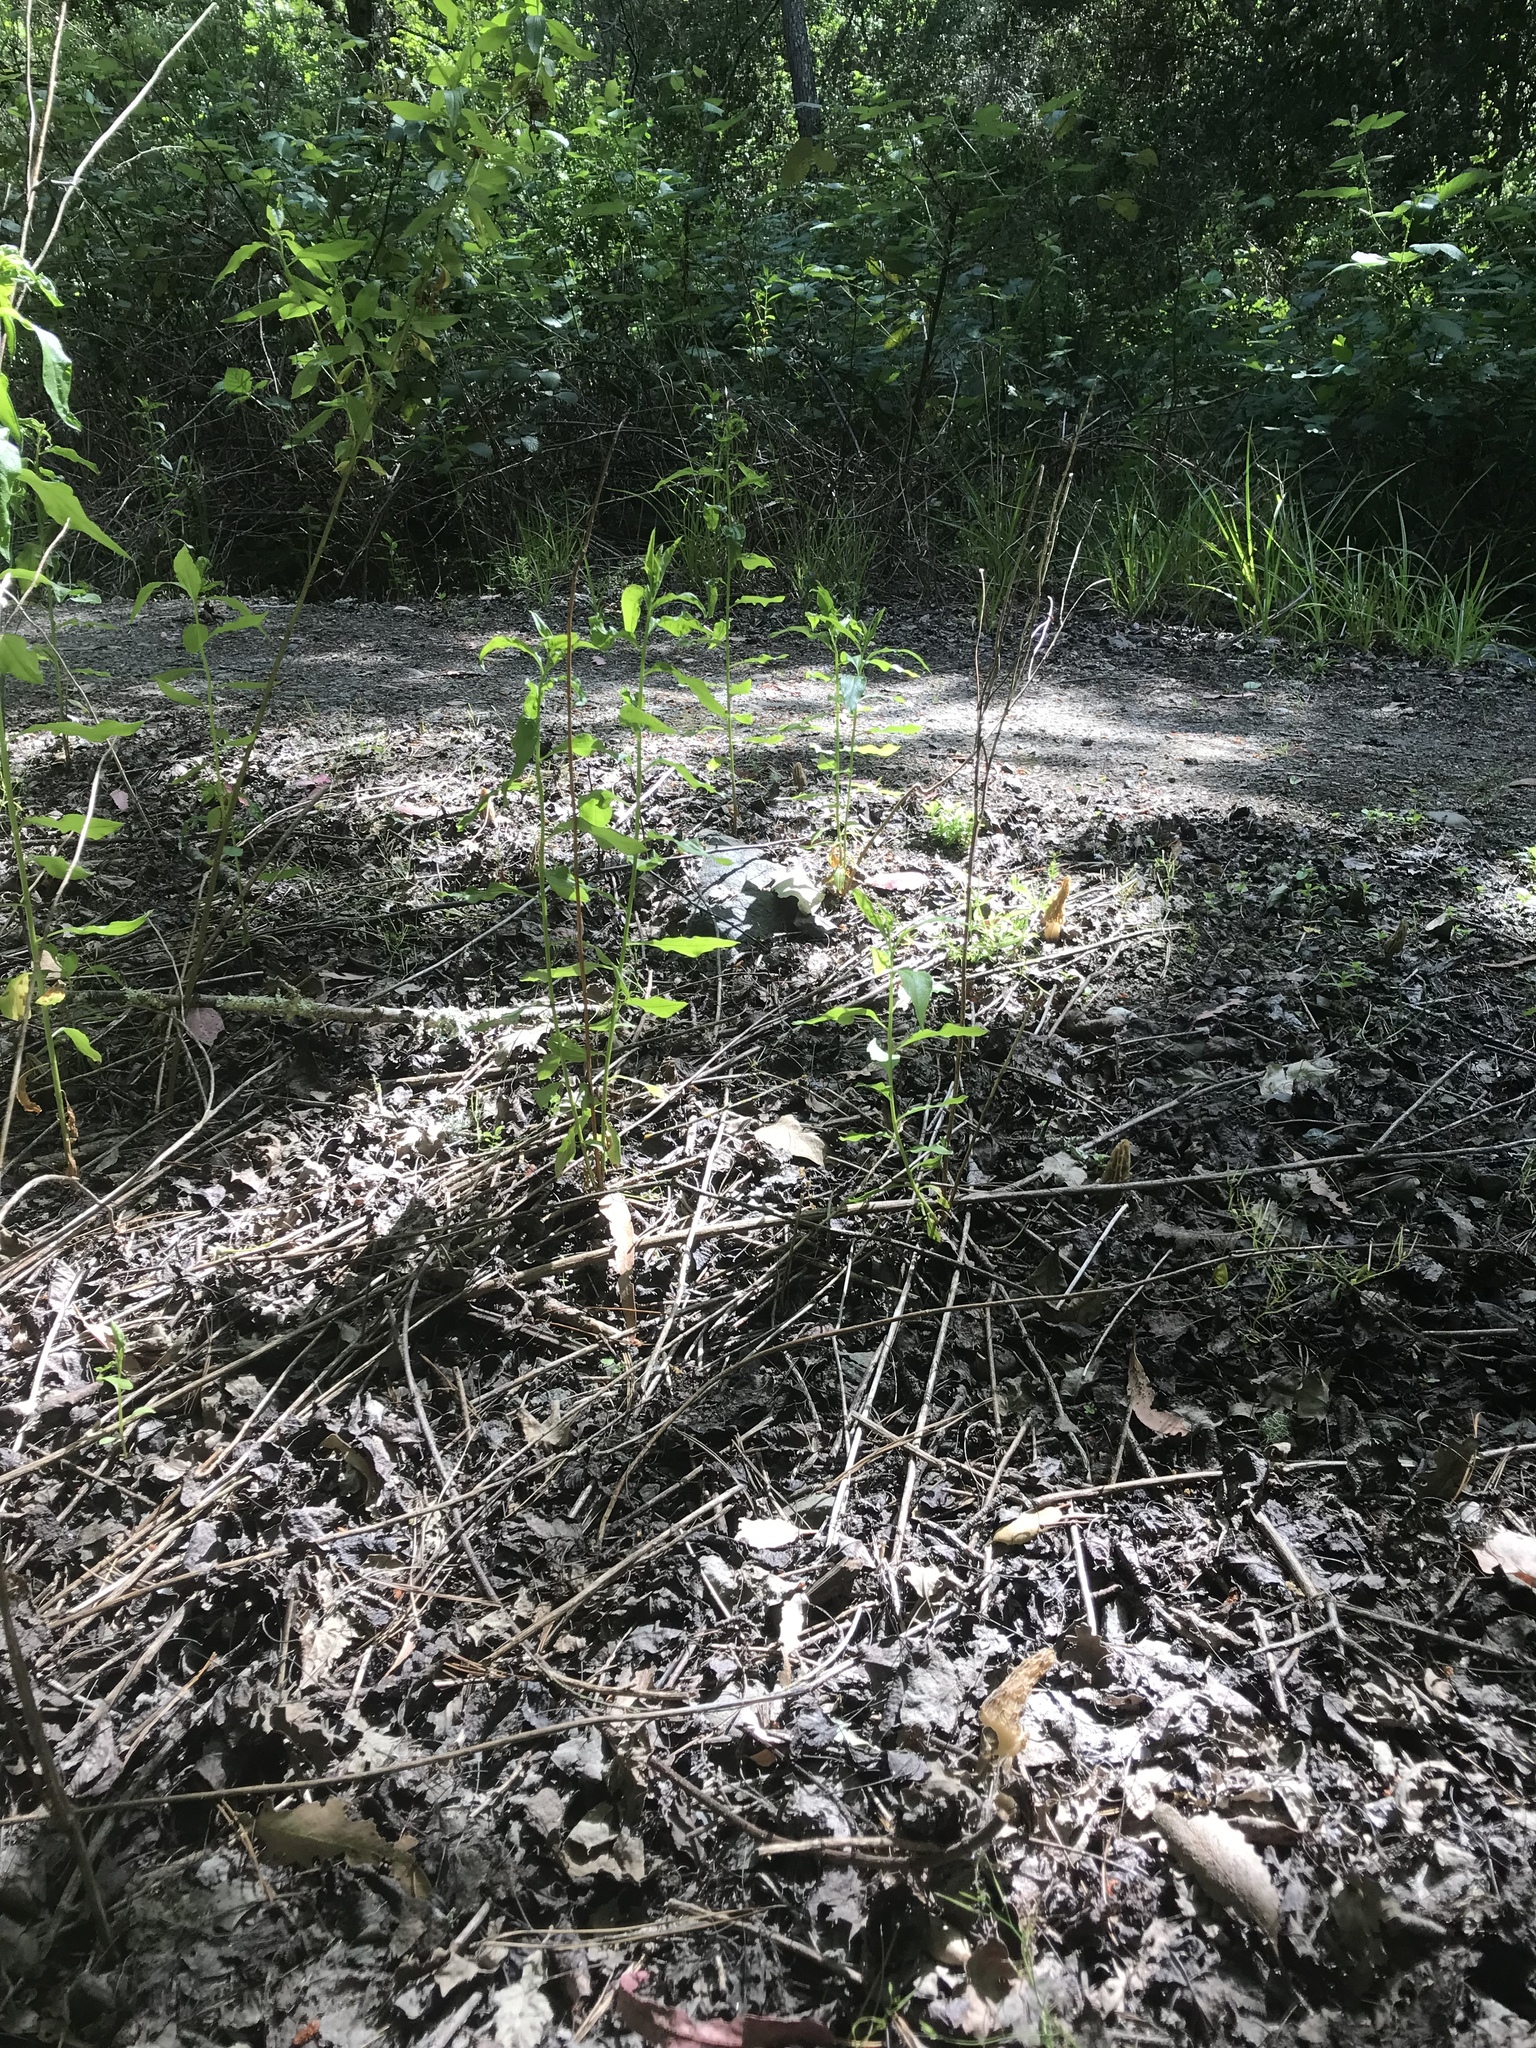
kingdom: Fungi
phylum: Ascomycota
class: Pezizomycetes
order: Pezizales
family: Morchellaceae
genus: Morchella
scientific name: Morchella rufobrunnea
